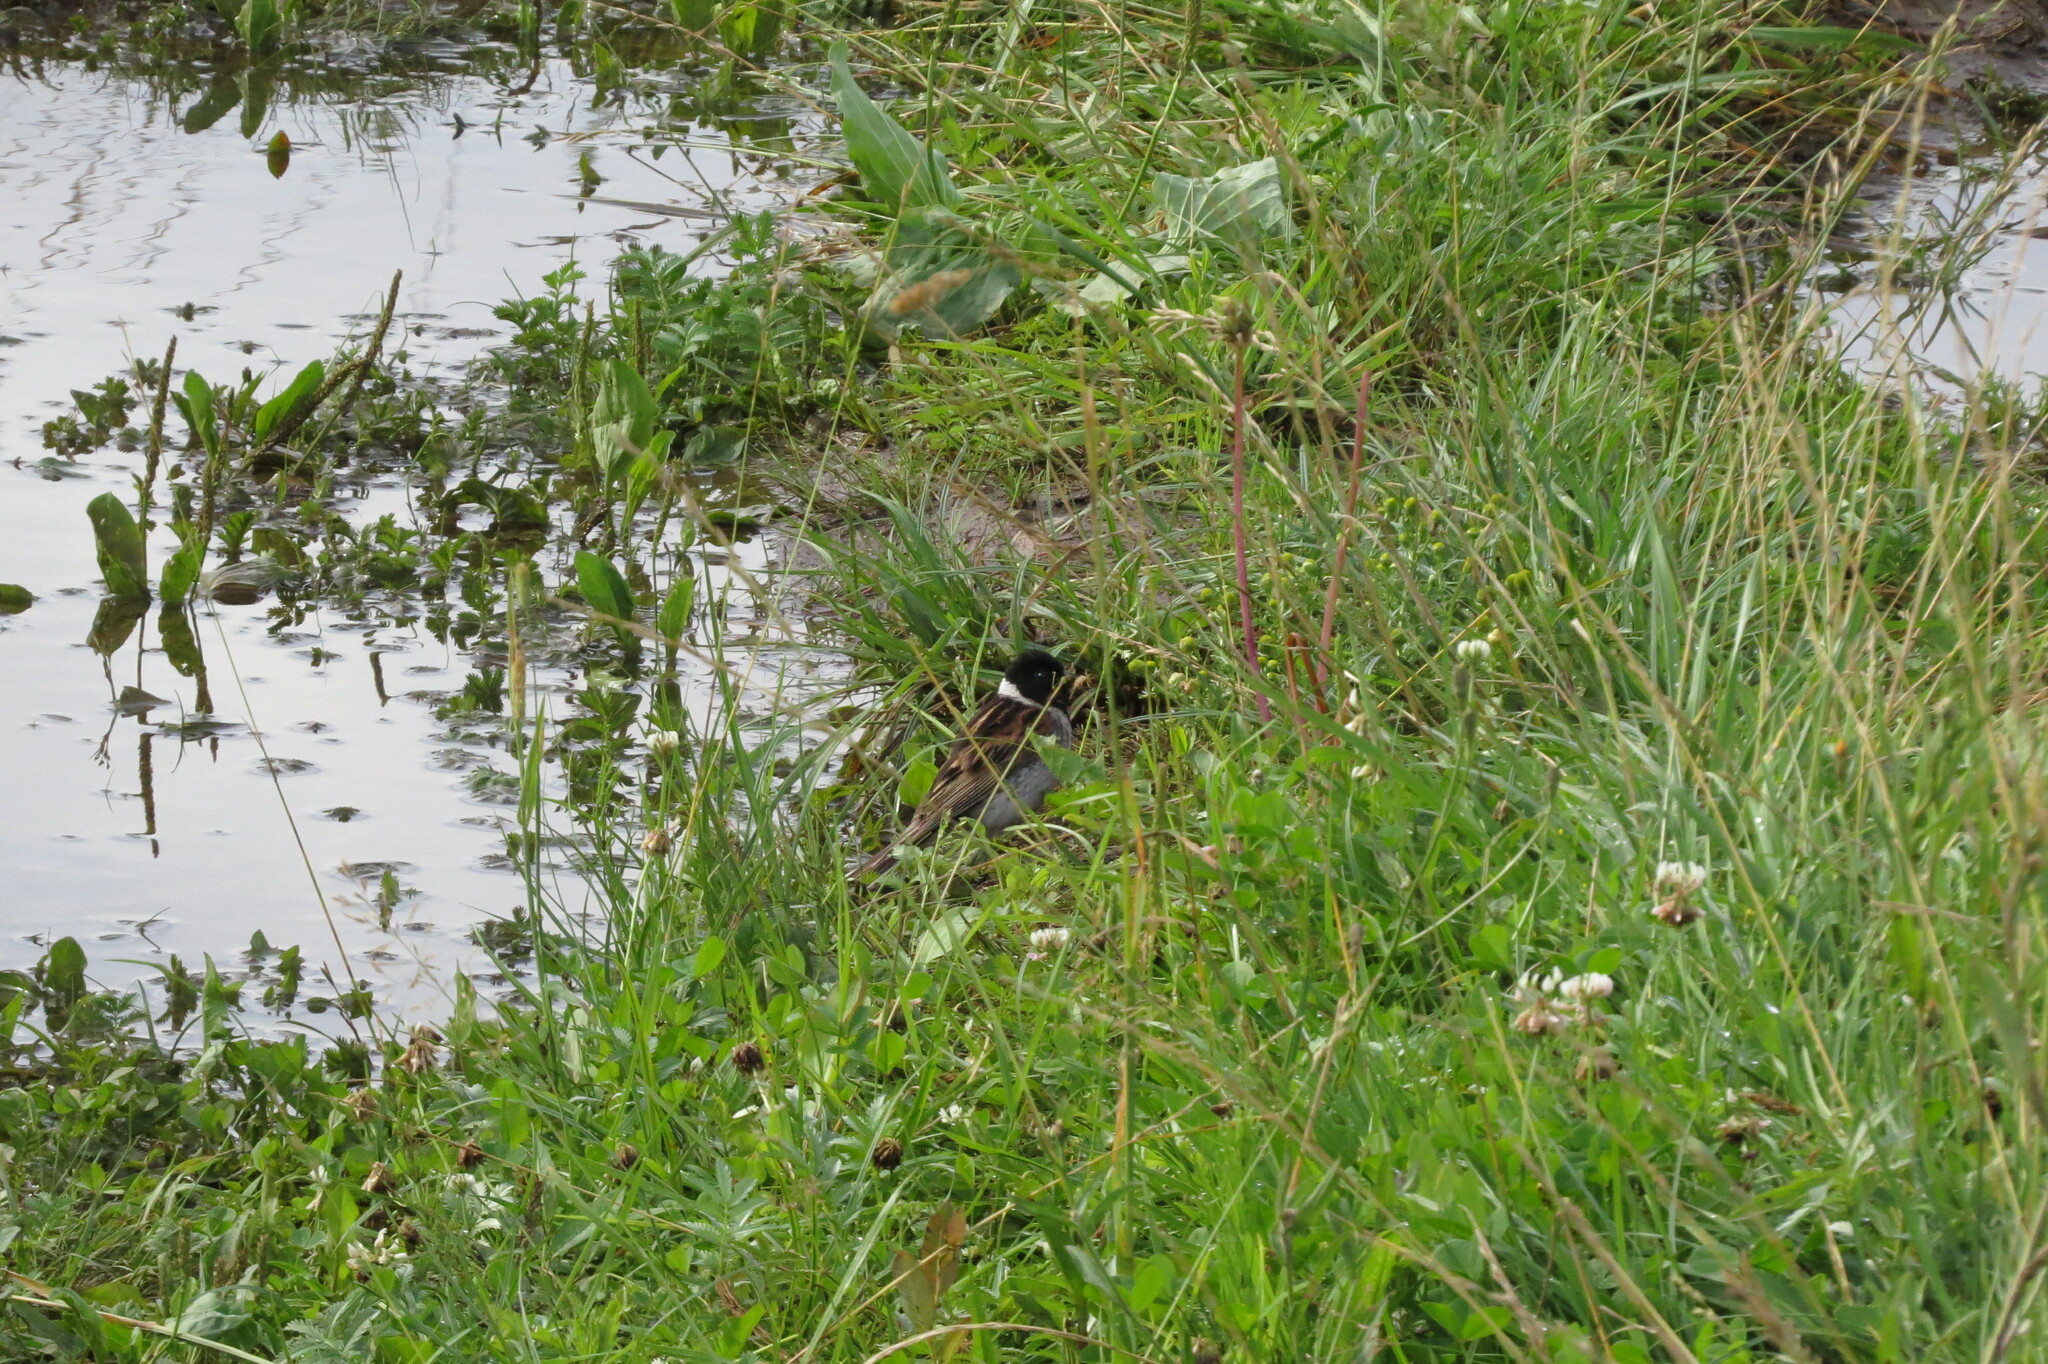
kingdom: Animalia
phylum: Chordata
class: Aves
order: Passeriformes
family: Emberizidae
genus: Emberiza
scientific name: Emberiza schoeniclus
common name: Reed bunting
